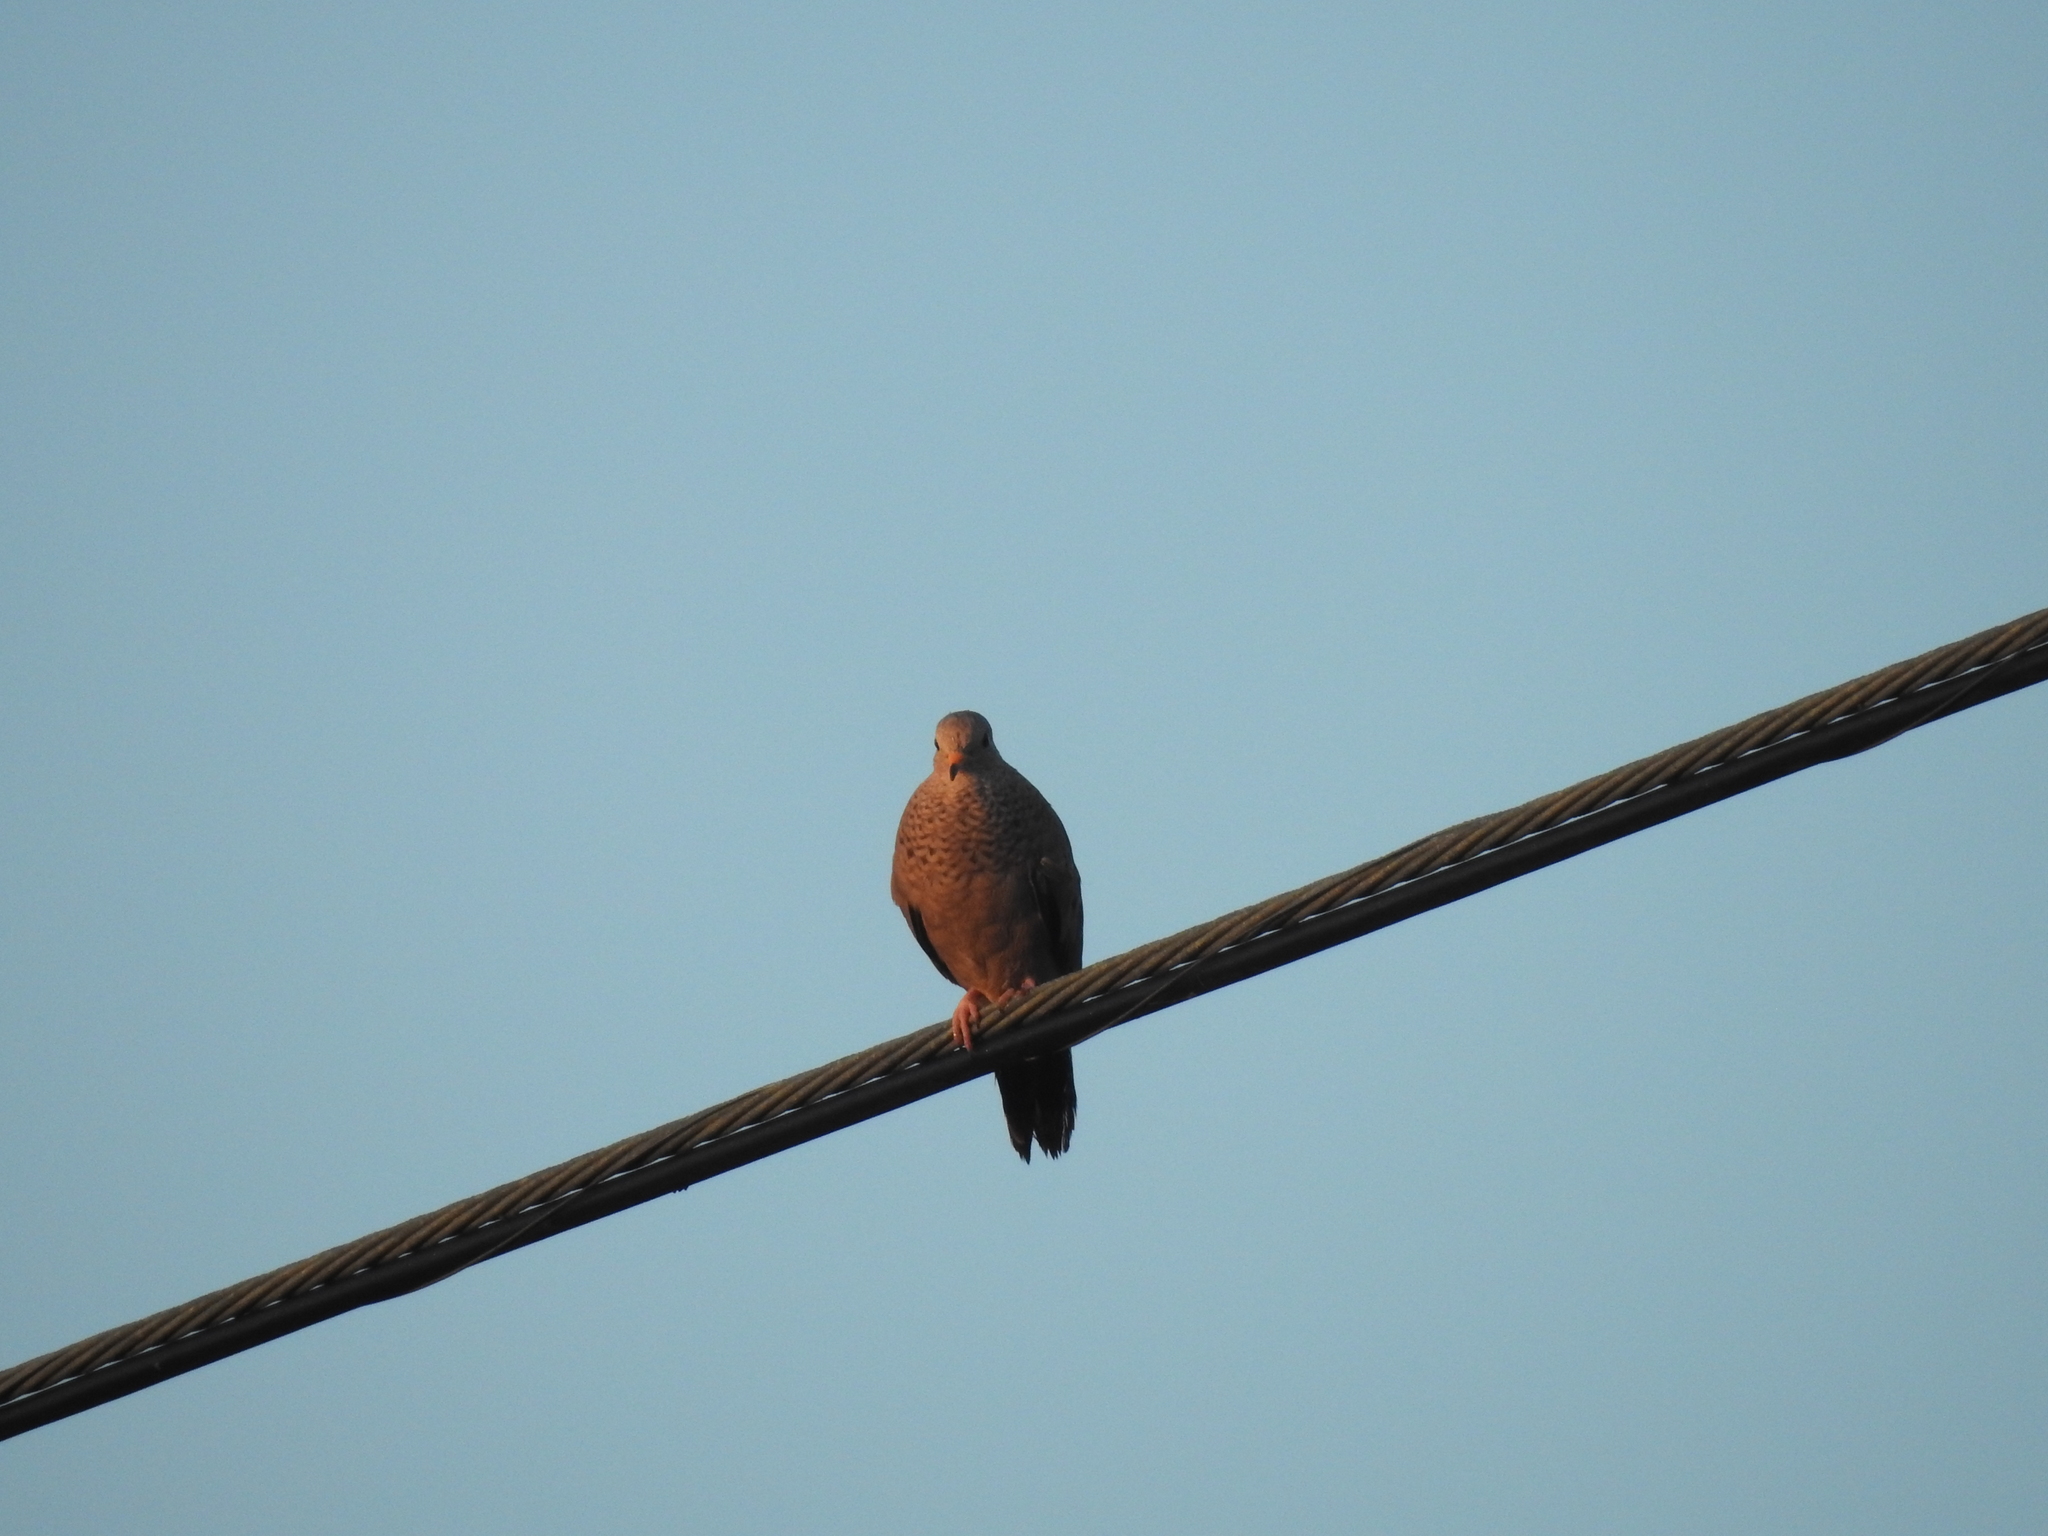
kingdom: Animalia
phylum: Chordata
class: Aves
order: Columbiformes
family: Columbidae
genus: Columbina
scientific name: Columbina passerina
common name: Common ground-dove
